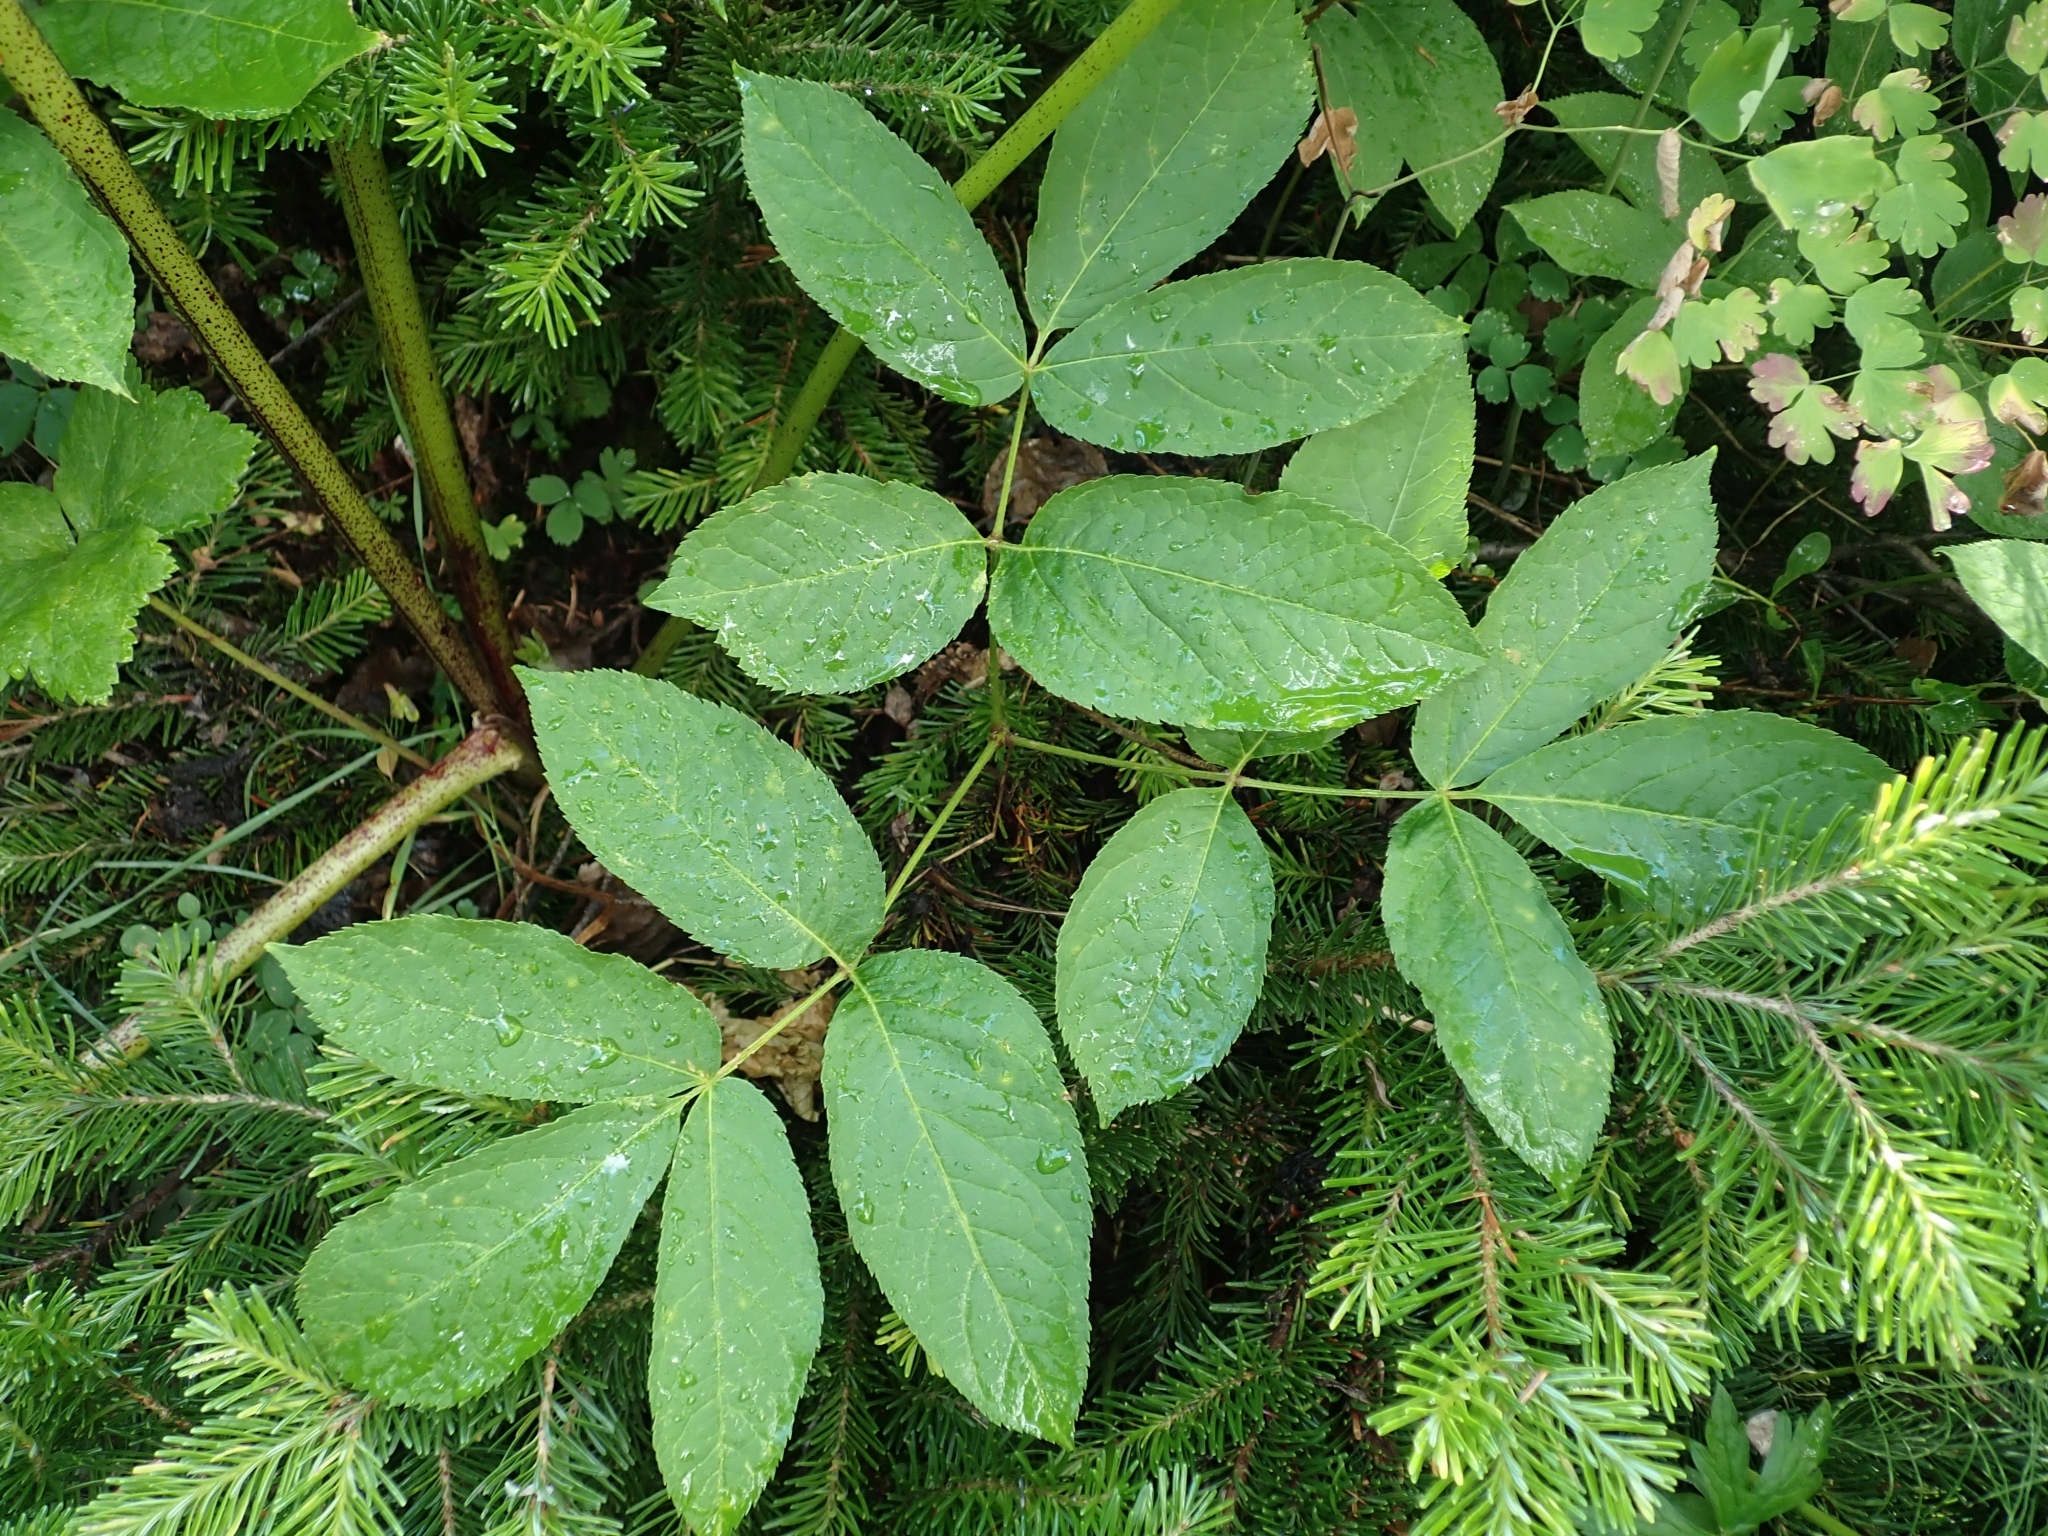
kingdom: Plantae
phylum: Tracheophyta
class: Magnoliopsida
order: Apiales
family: Araliaceae
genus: Aralia
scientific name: Aralia nudicaulis
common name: Wild sarsaparilla
